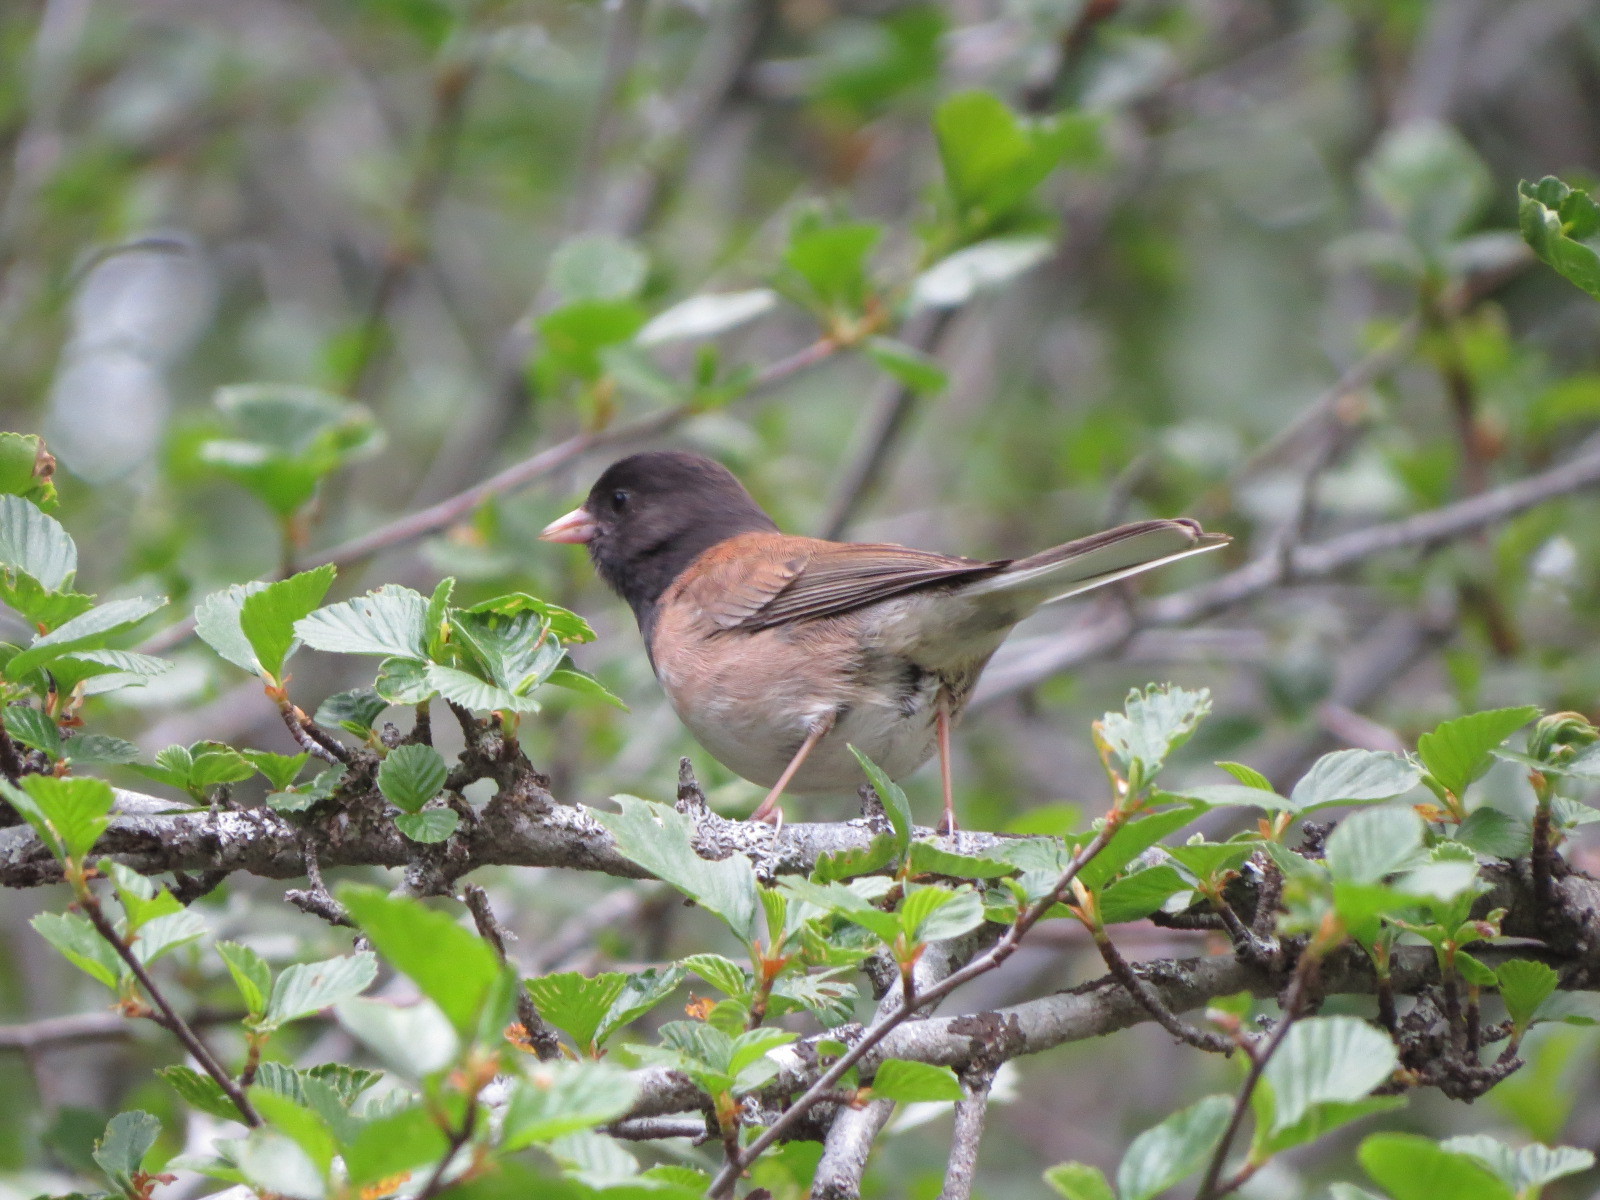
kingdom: Animalia
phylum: Chordata
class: Aves
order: Passeriformes
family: Passerellidae
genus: Junco
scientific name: Junco hyemalis
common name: Dark-eyed junco
